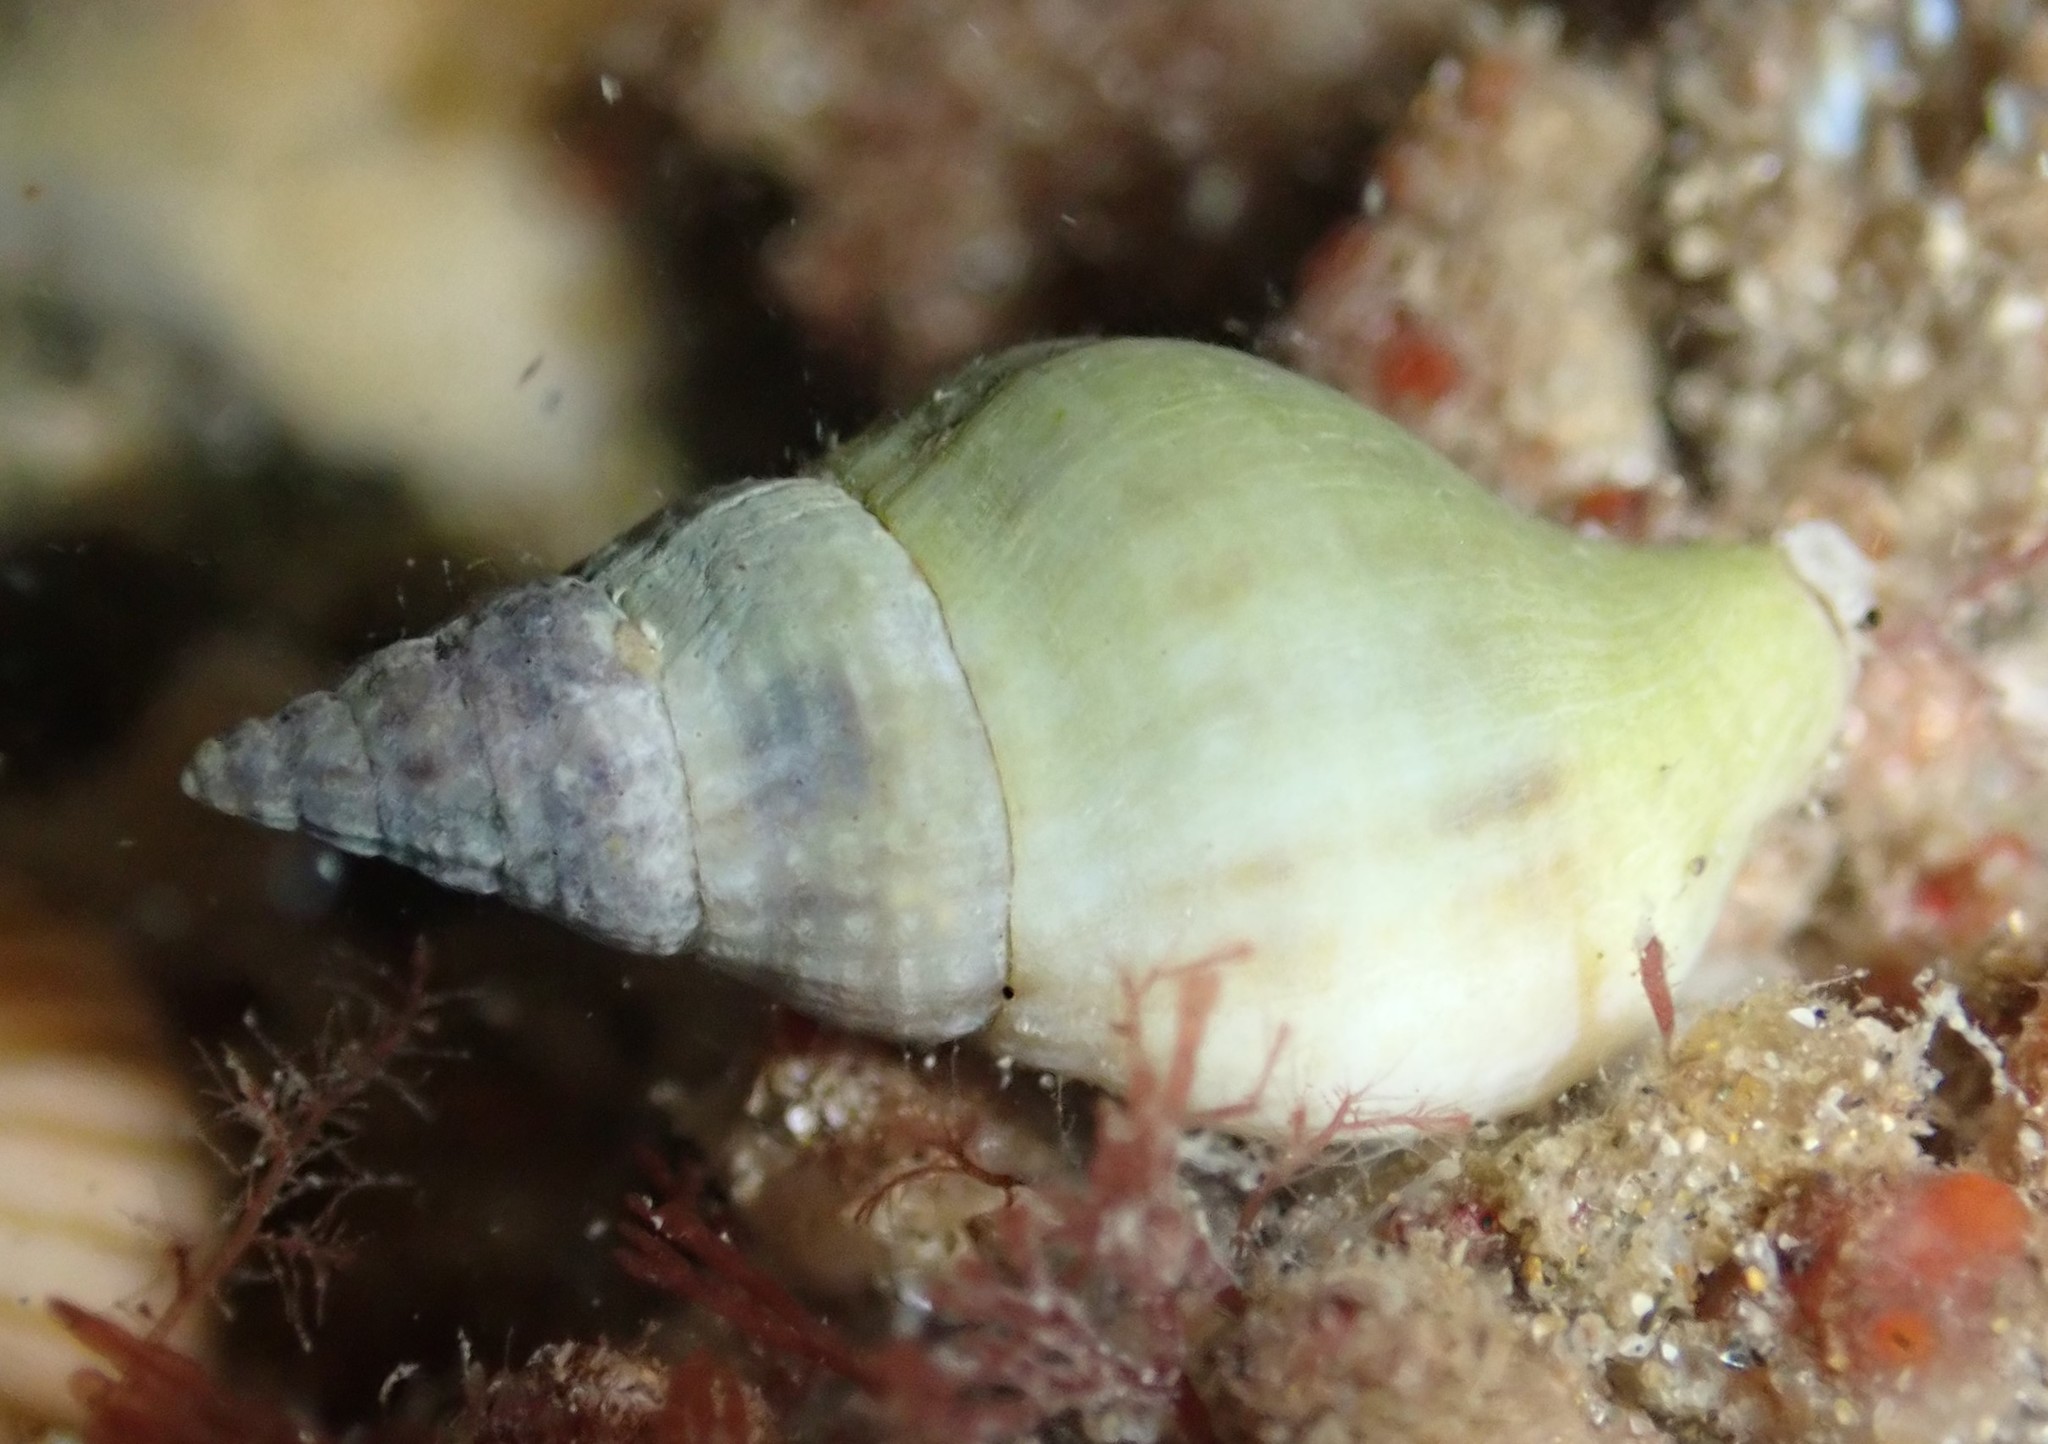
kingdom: Animalia
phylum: Mollusca
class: Gastropoda
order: Neogastropoda
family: Tudiclidae
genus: Buccinulum
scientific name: Buccinulum vittatum
